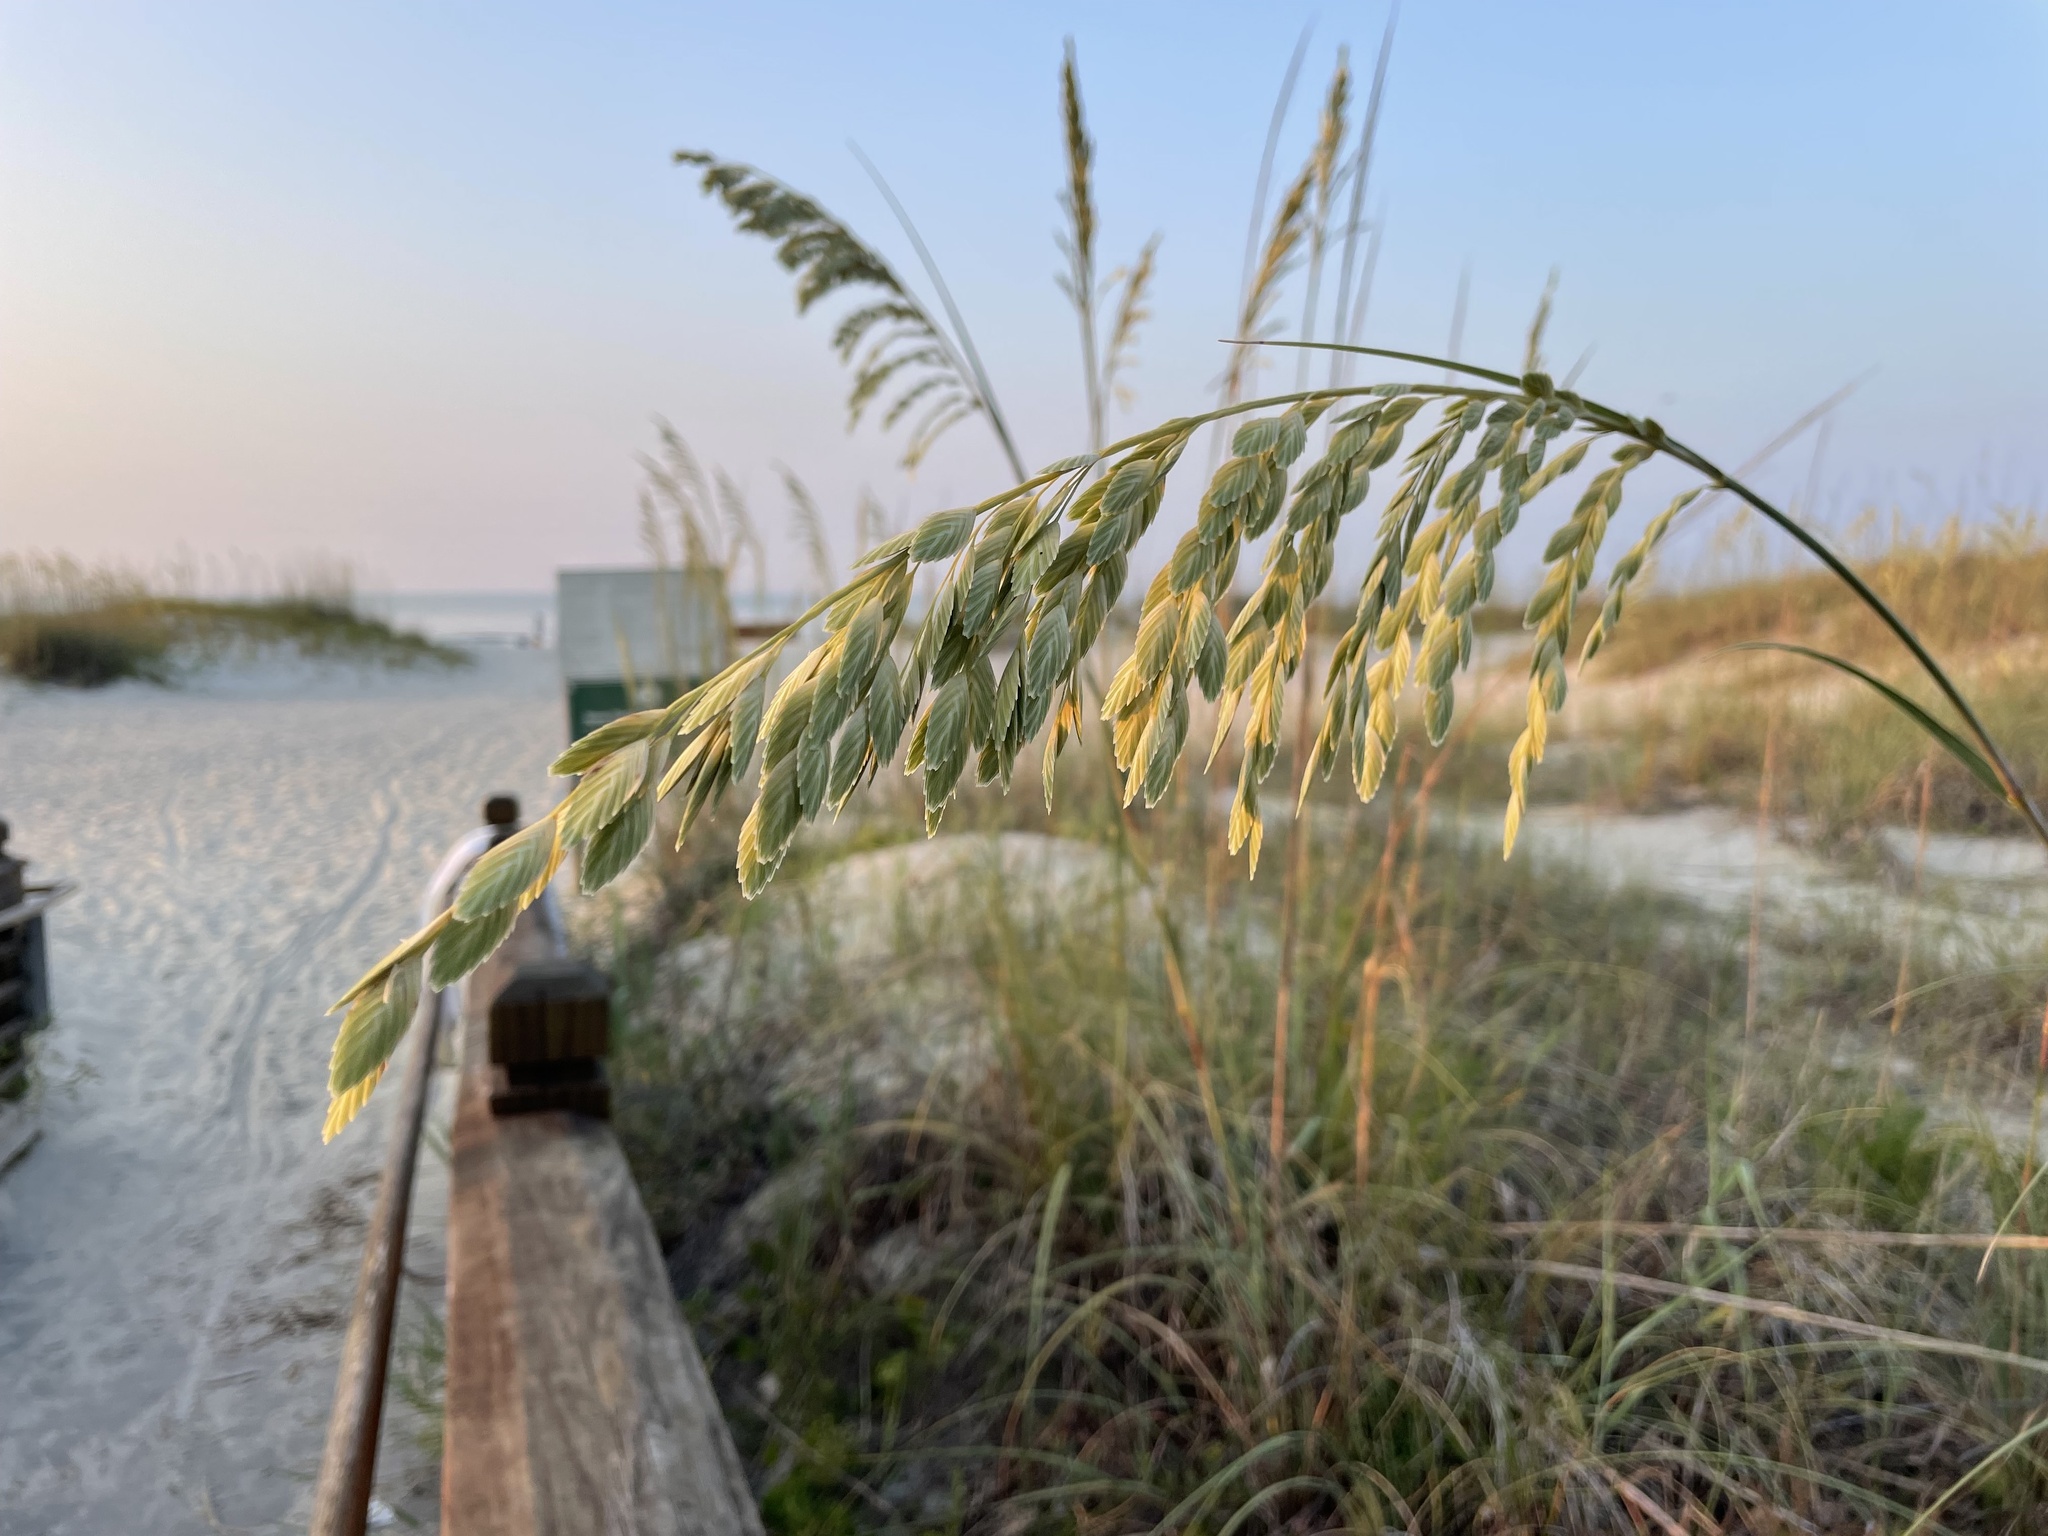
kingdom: Plantae
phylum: Tracheophyta
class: Liliopsida
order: Poales
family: Poaceae
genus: Uniola
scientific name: Uniola paniculata
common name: Seaside-oats
